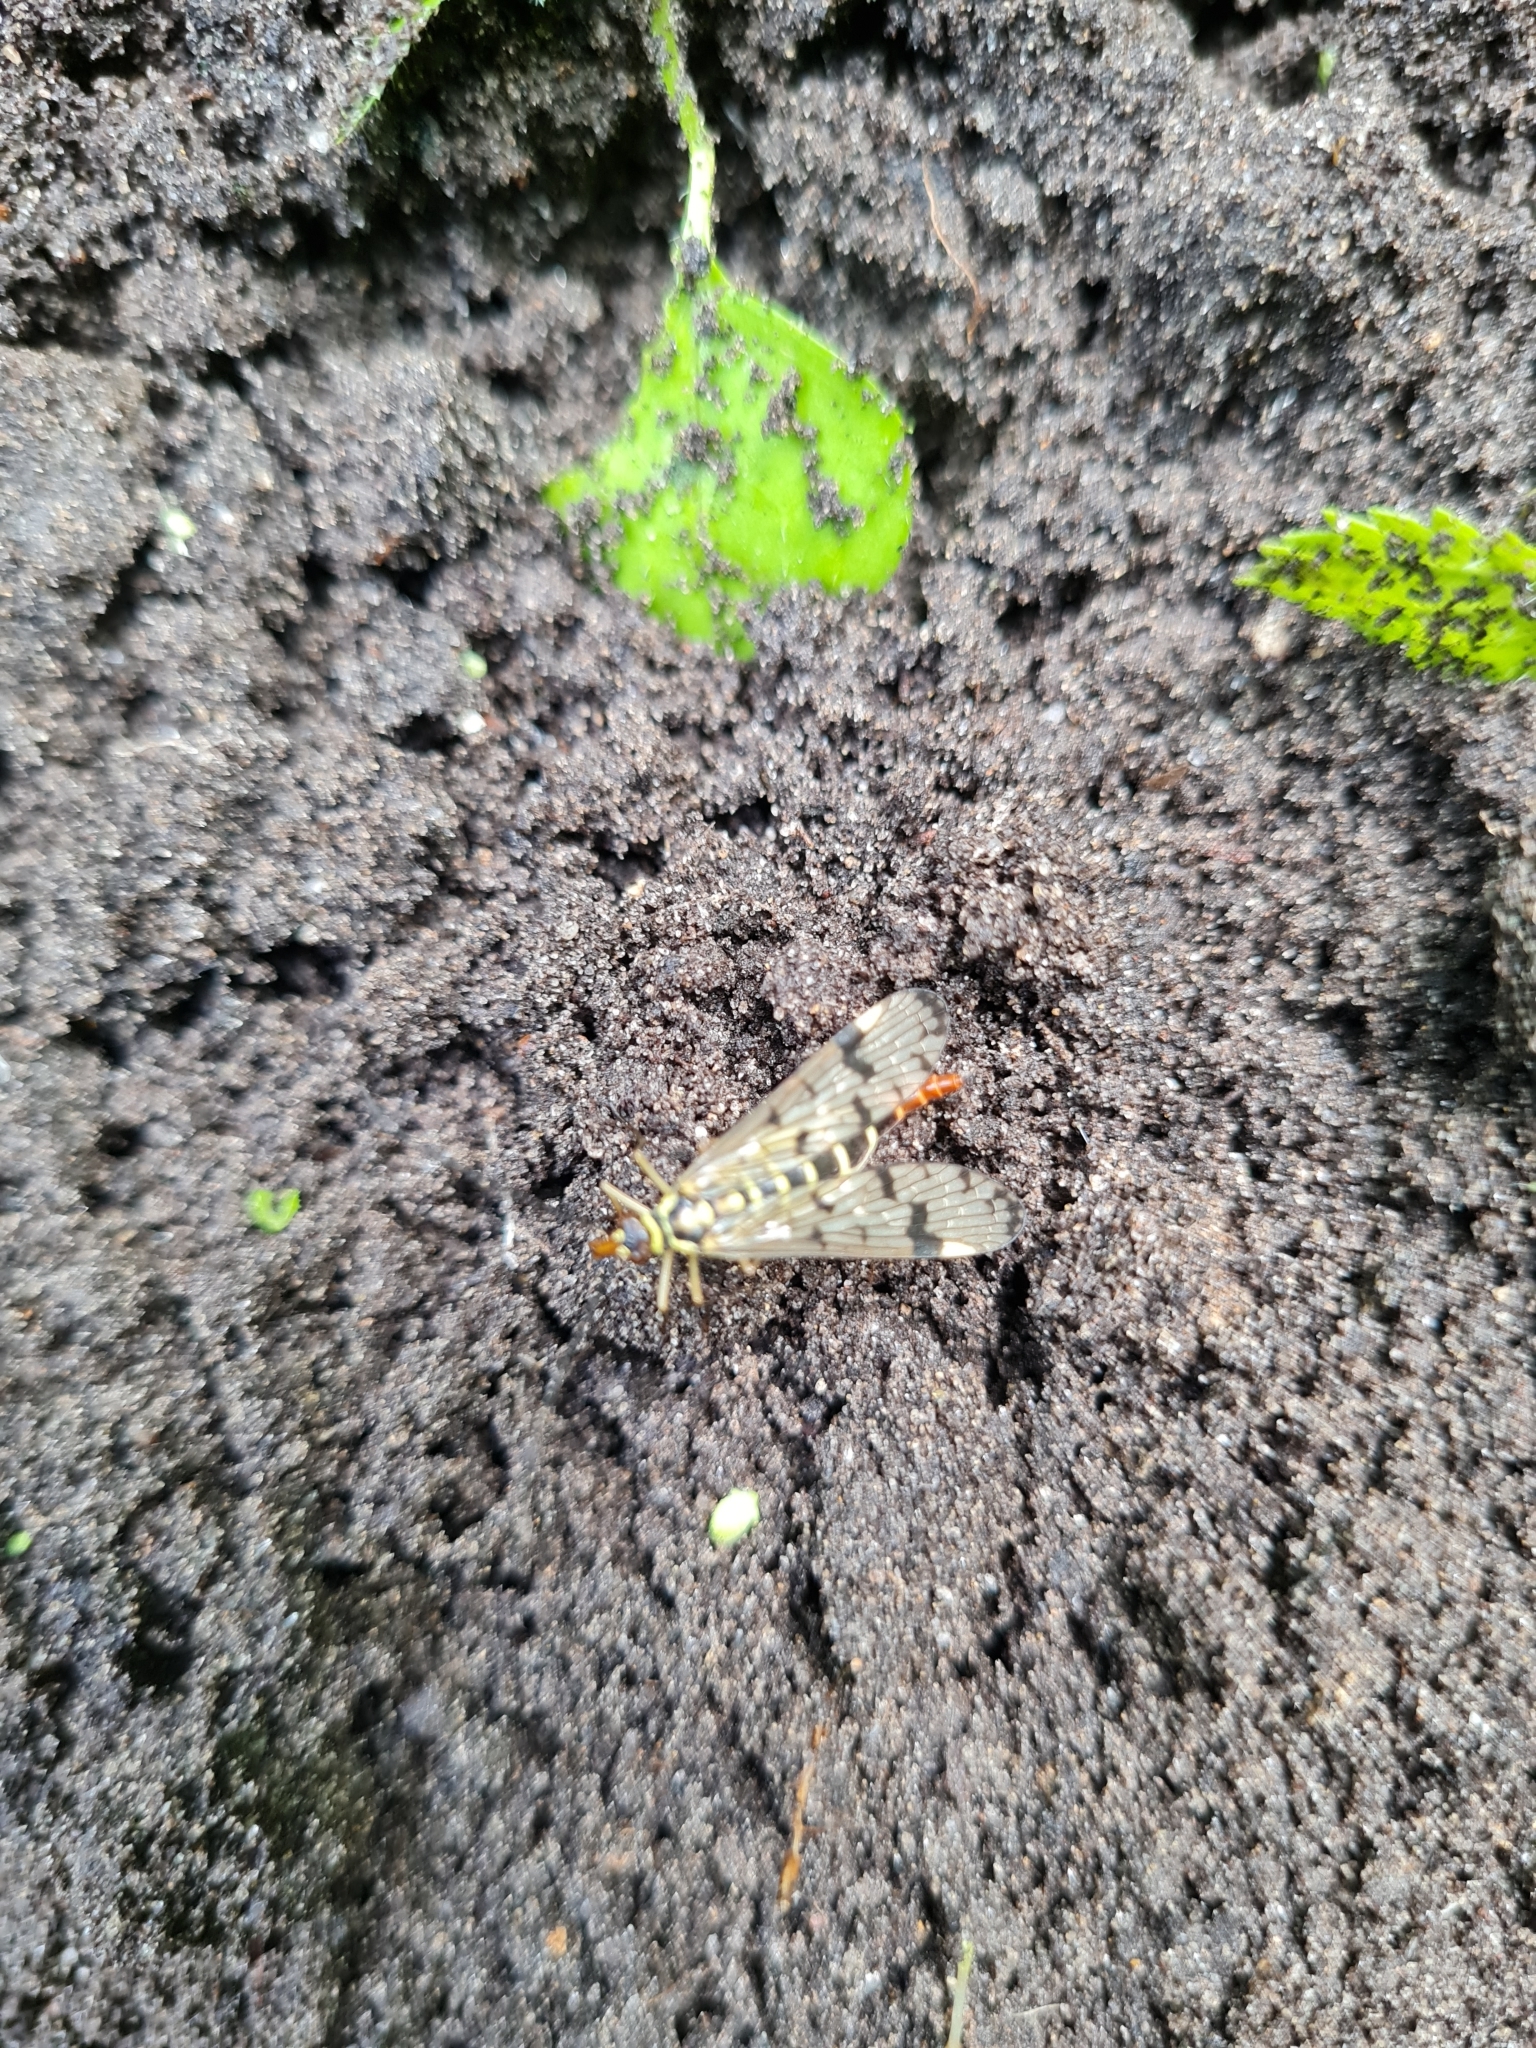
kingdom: Animalia
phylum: Arthropoda
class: Insecta
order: Mecoptera
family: Panorpidae
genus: Panorpa
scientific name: Panorpa germanica
